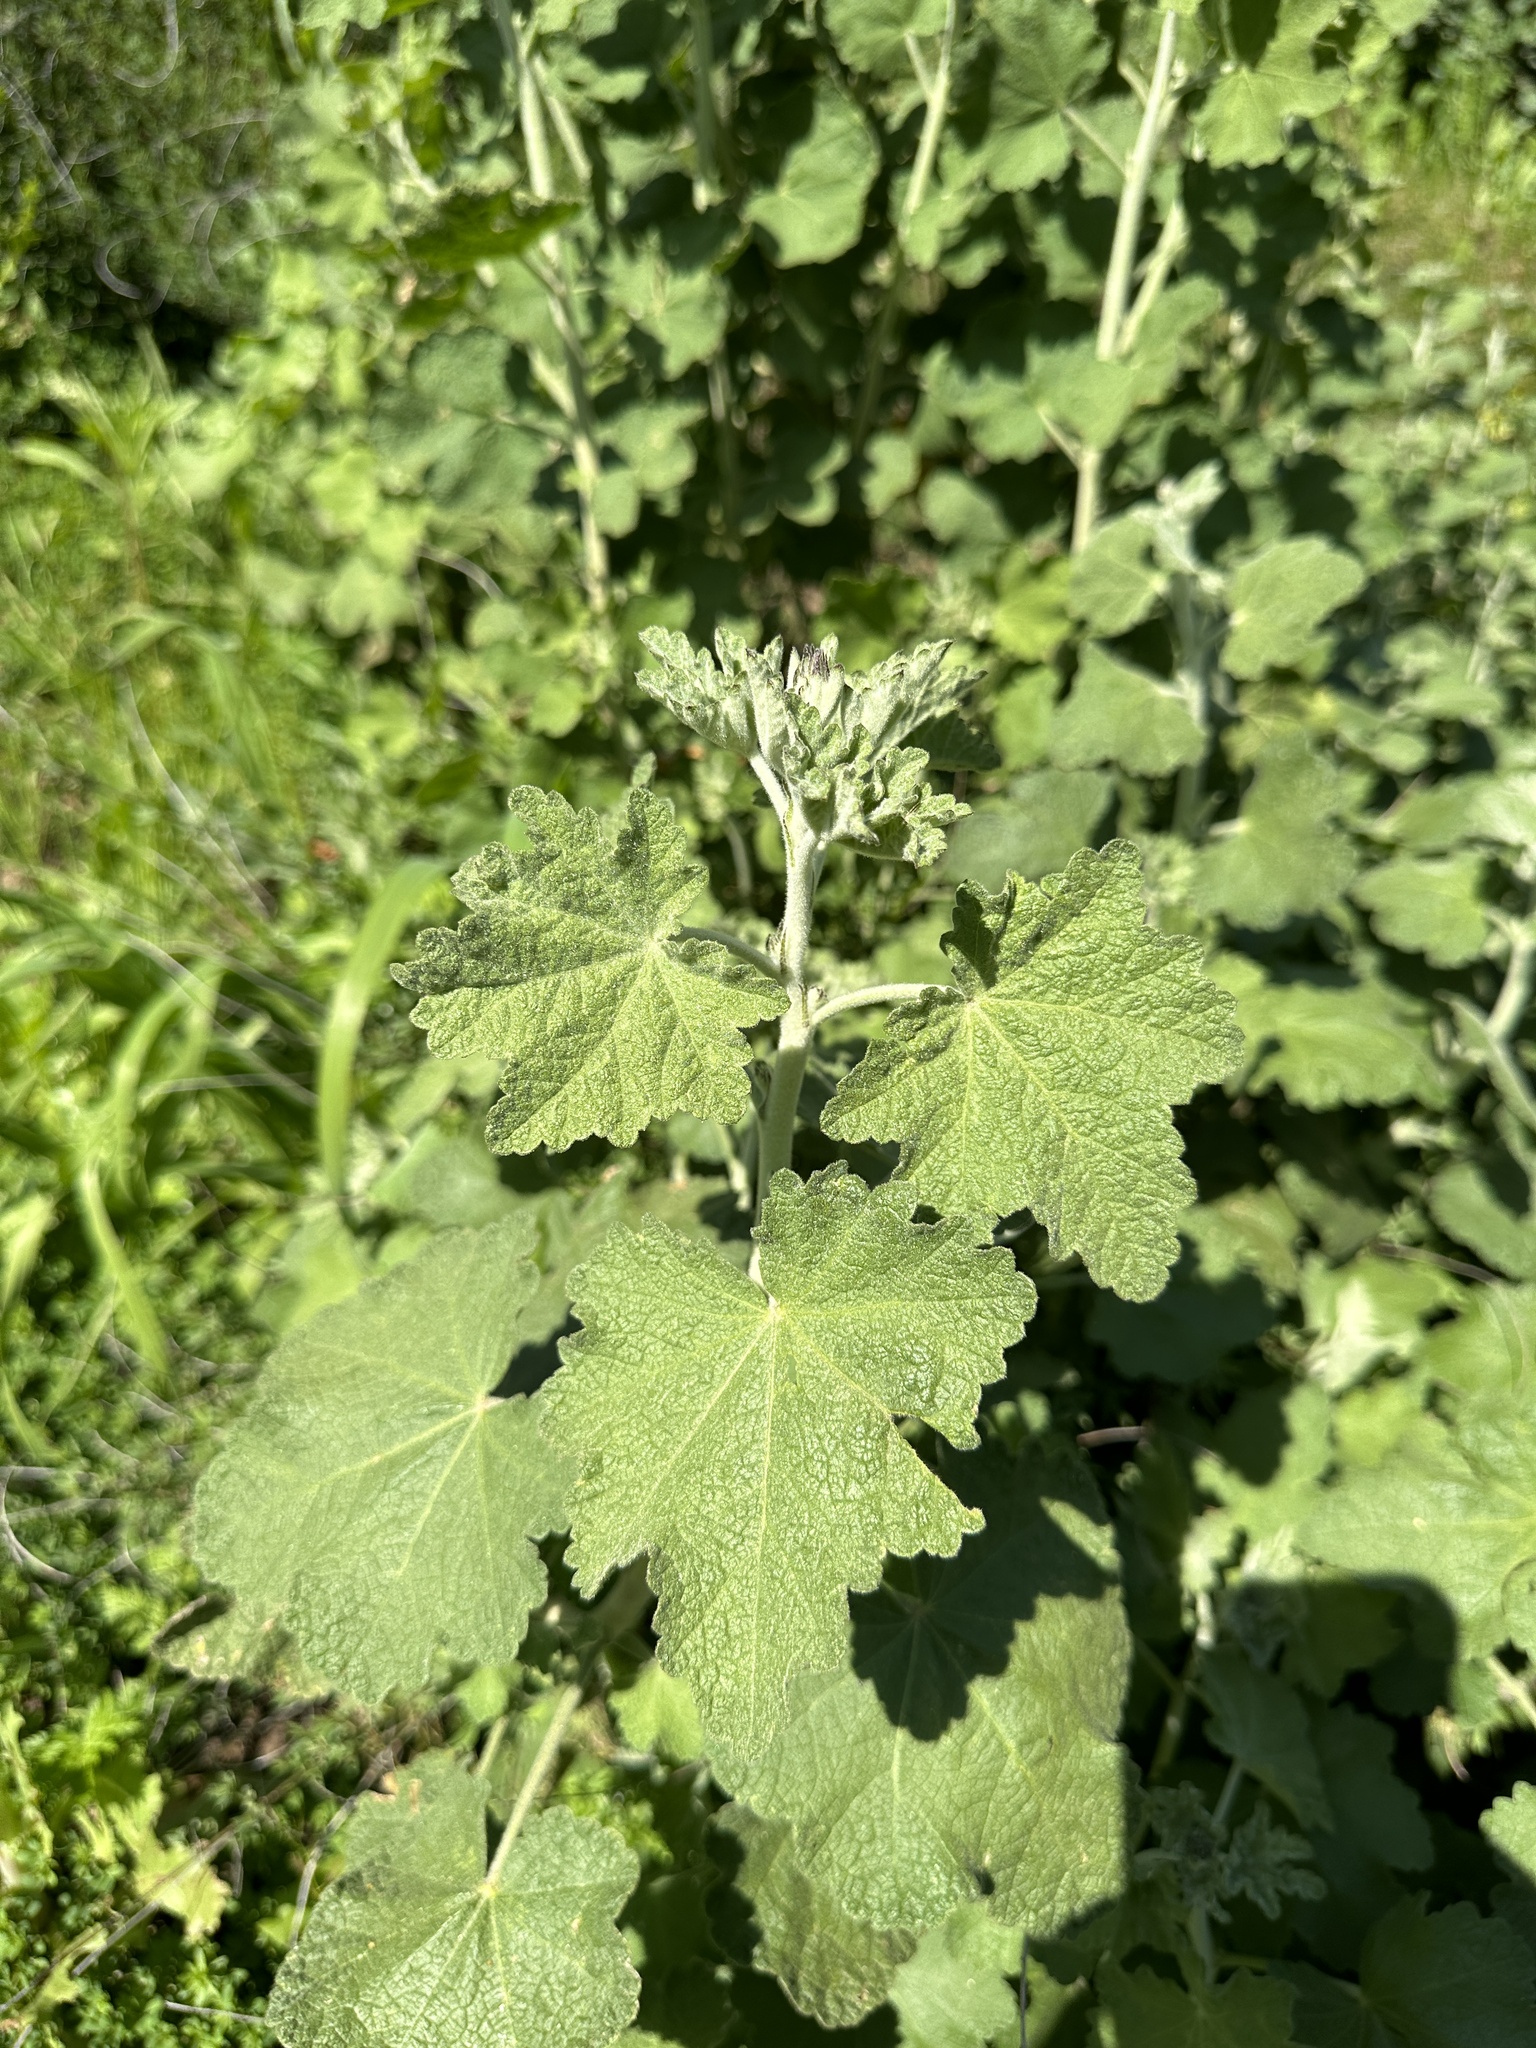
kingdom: Plantae
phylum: Tracheophyta
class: Magnoliopsida
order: Malvales
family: Malvaceae
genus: Malacothamnus
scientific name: Malacothamnus fremontii
